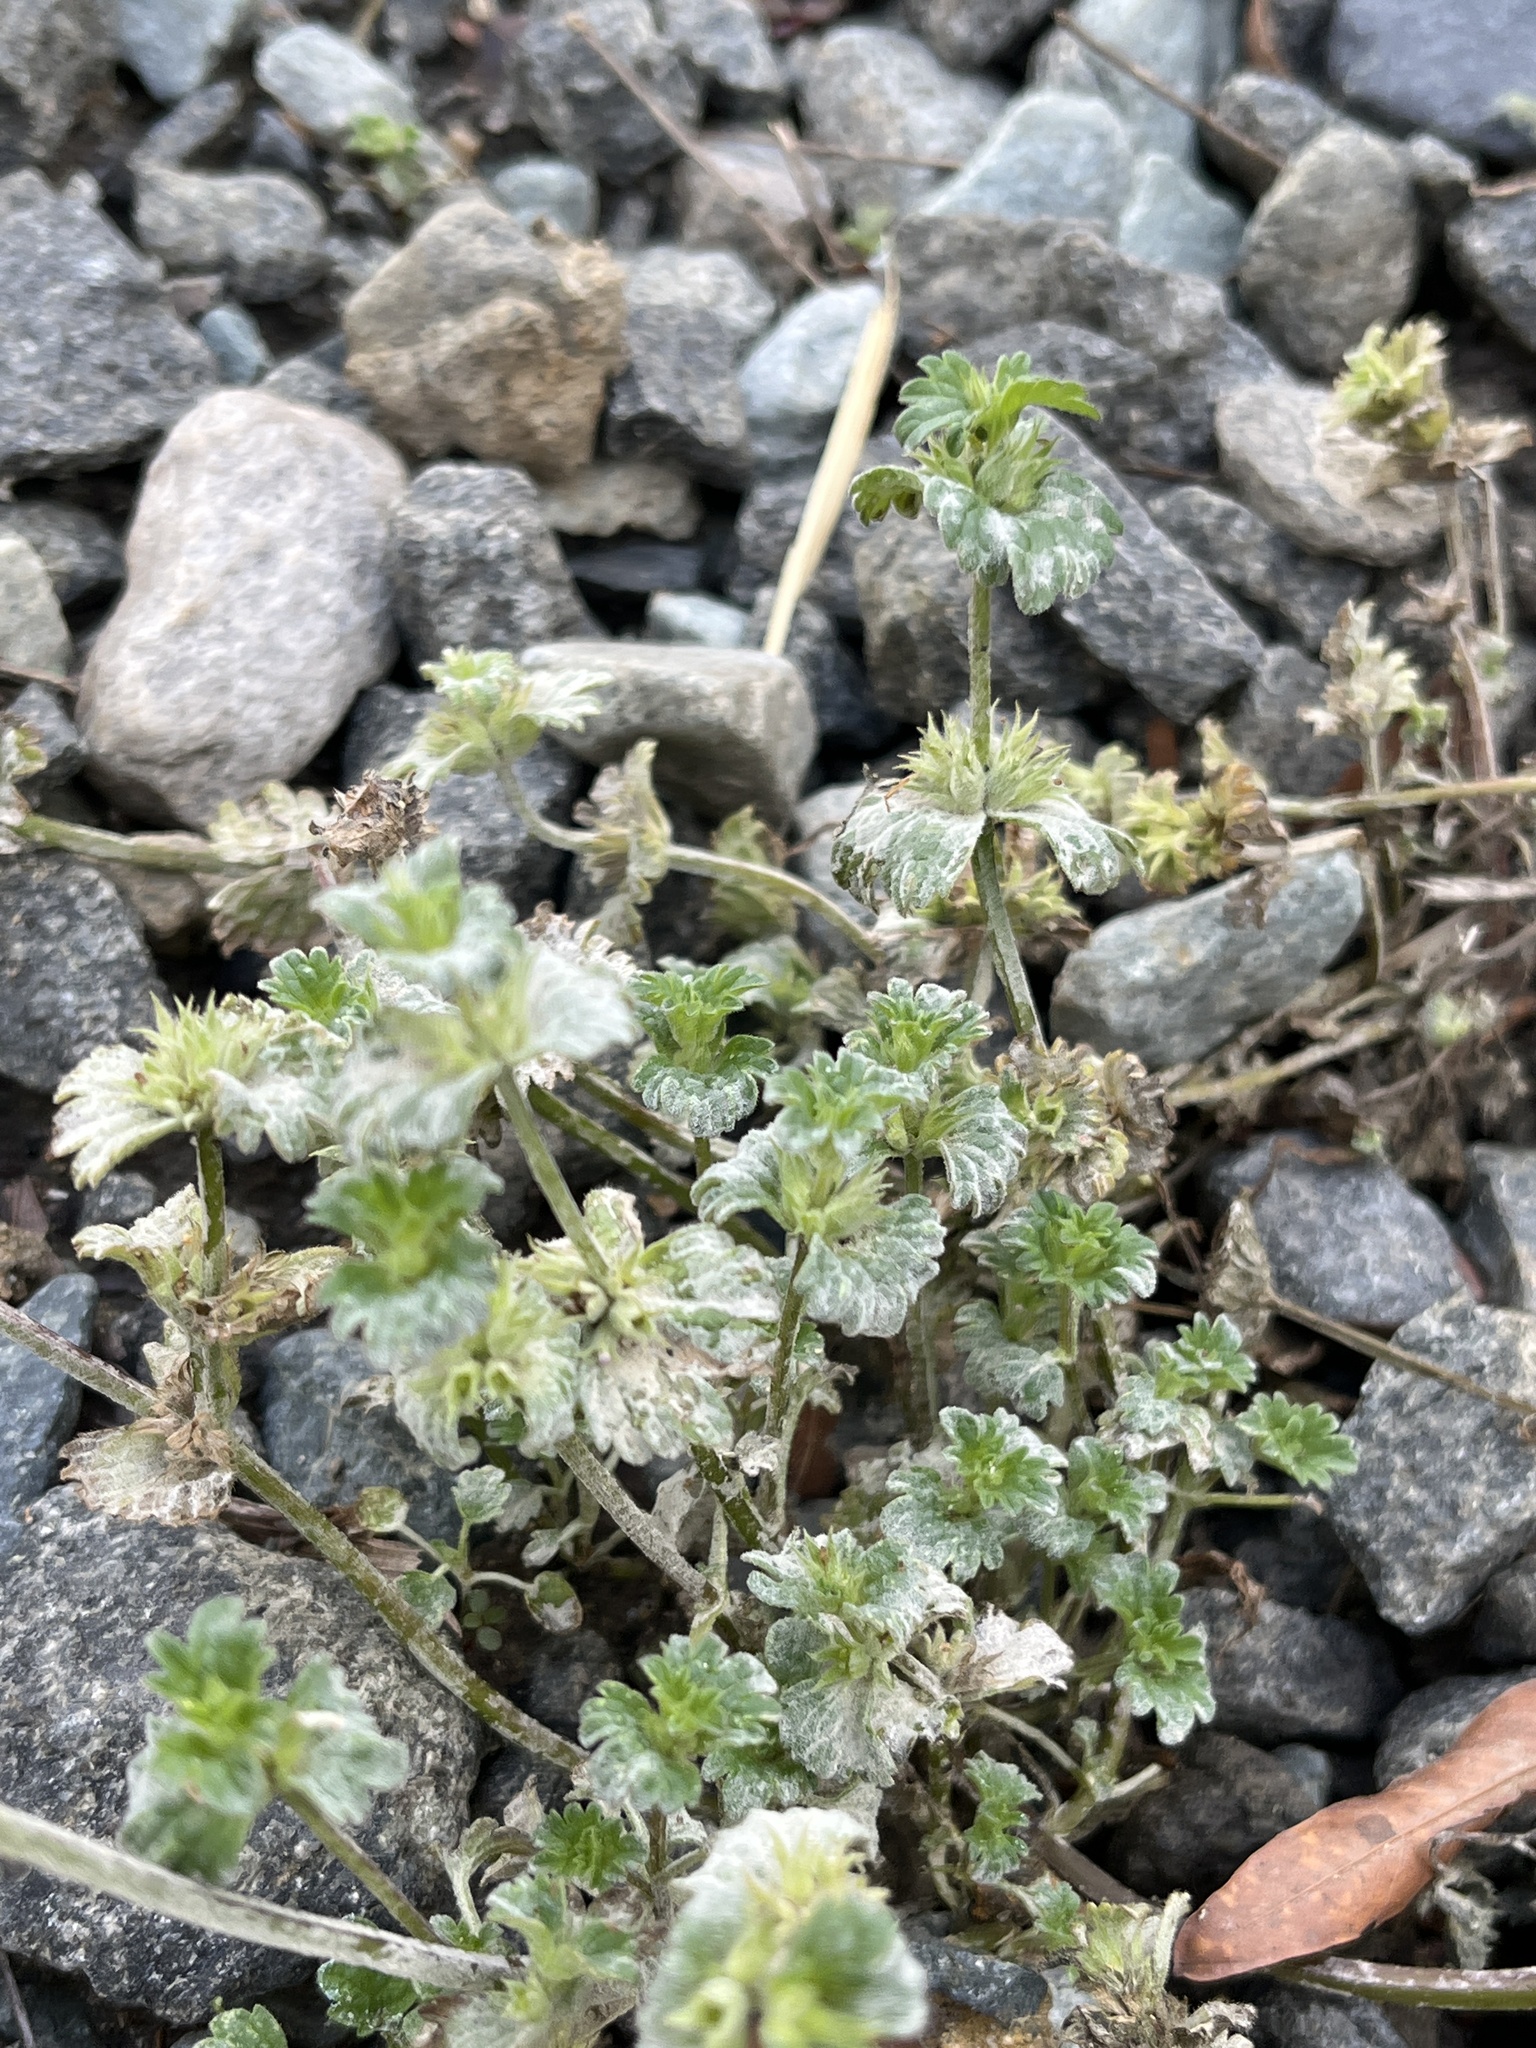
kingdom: Plantae
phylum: Tracheophyta
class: Magnoliopsida
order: Lamiales
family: Lamiaceae
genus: Lamium
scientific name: Lamium amplexicaule
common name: Henbit dead-nettle
